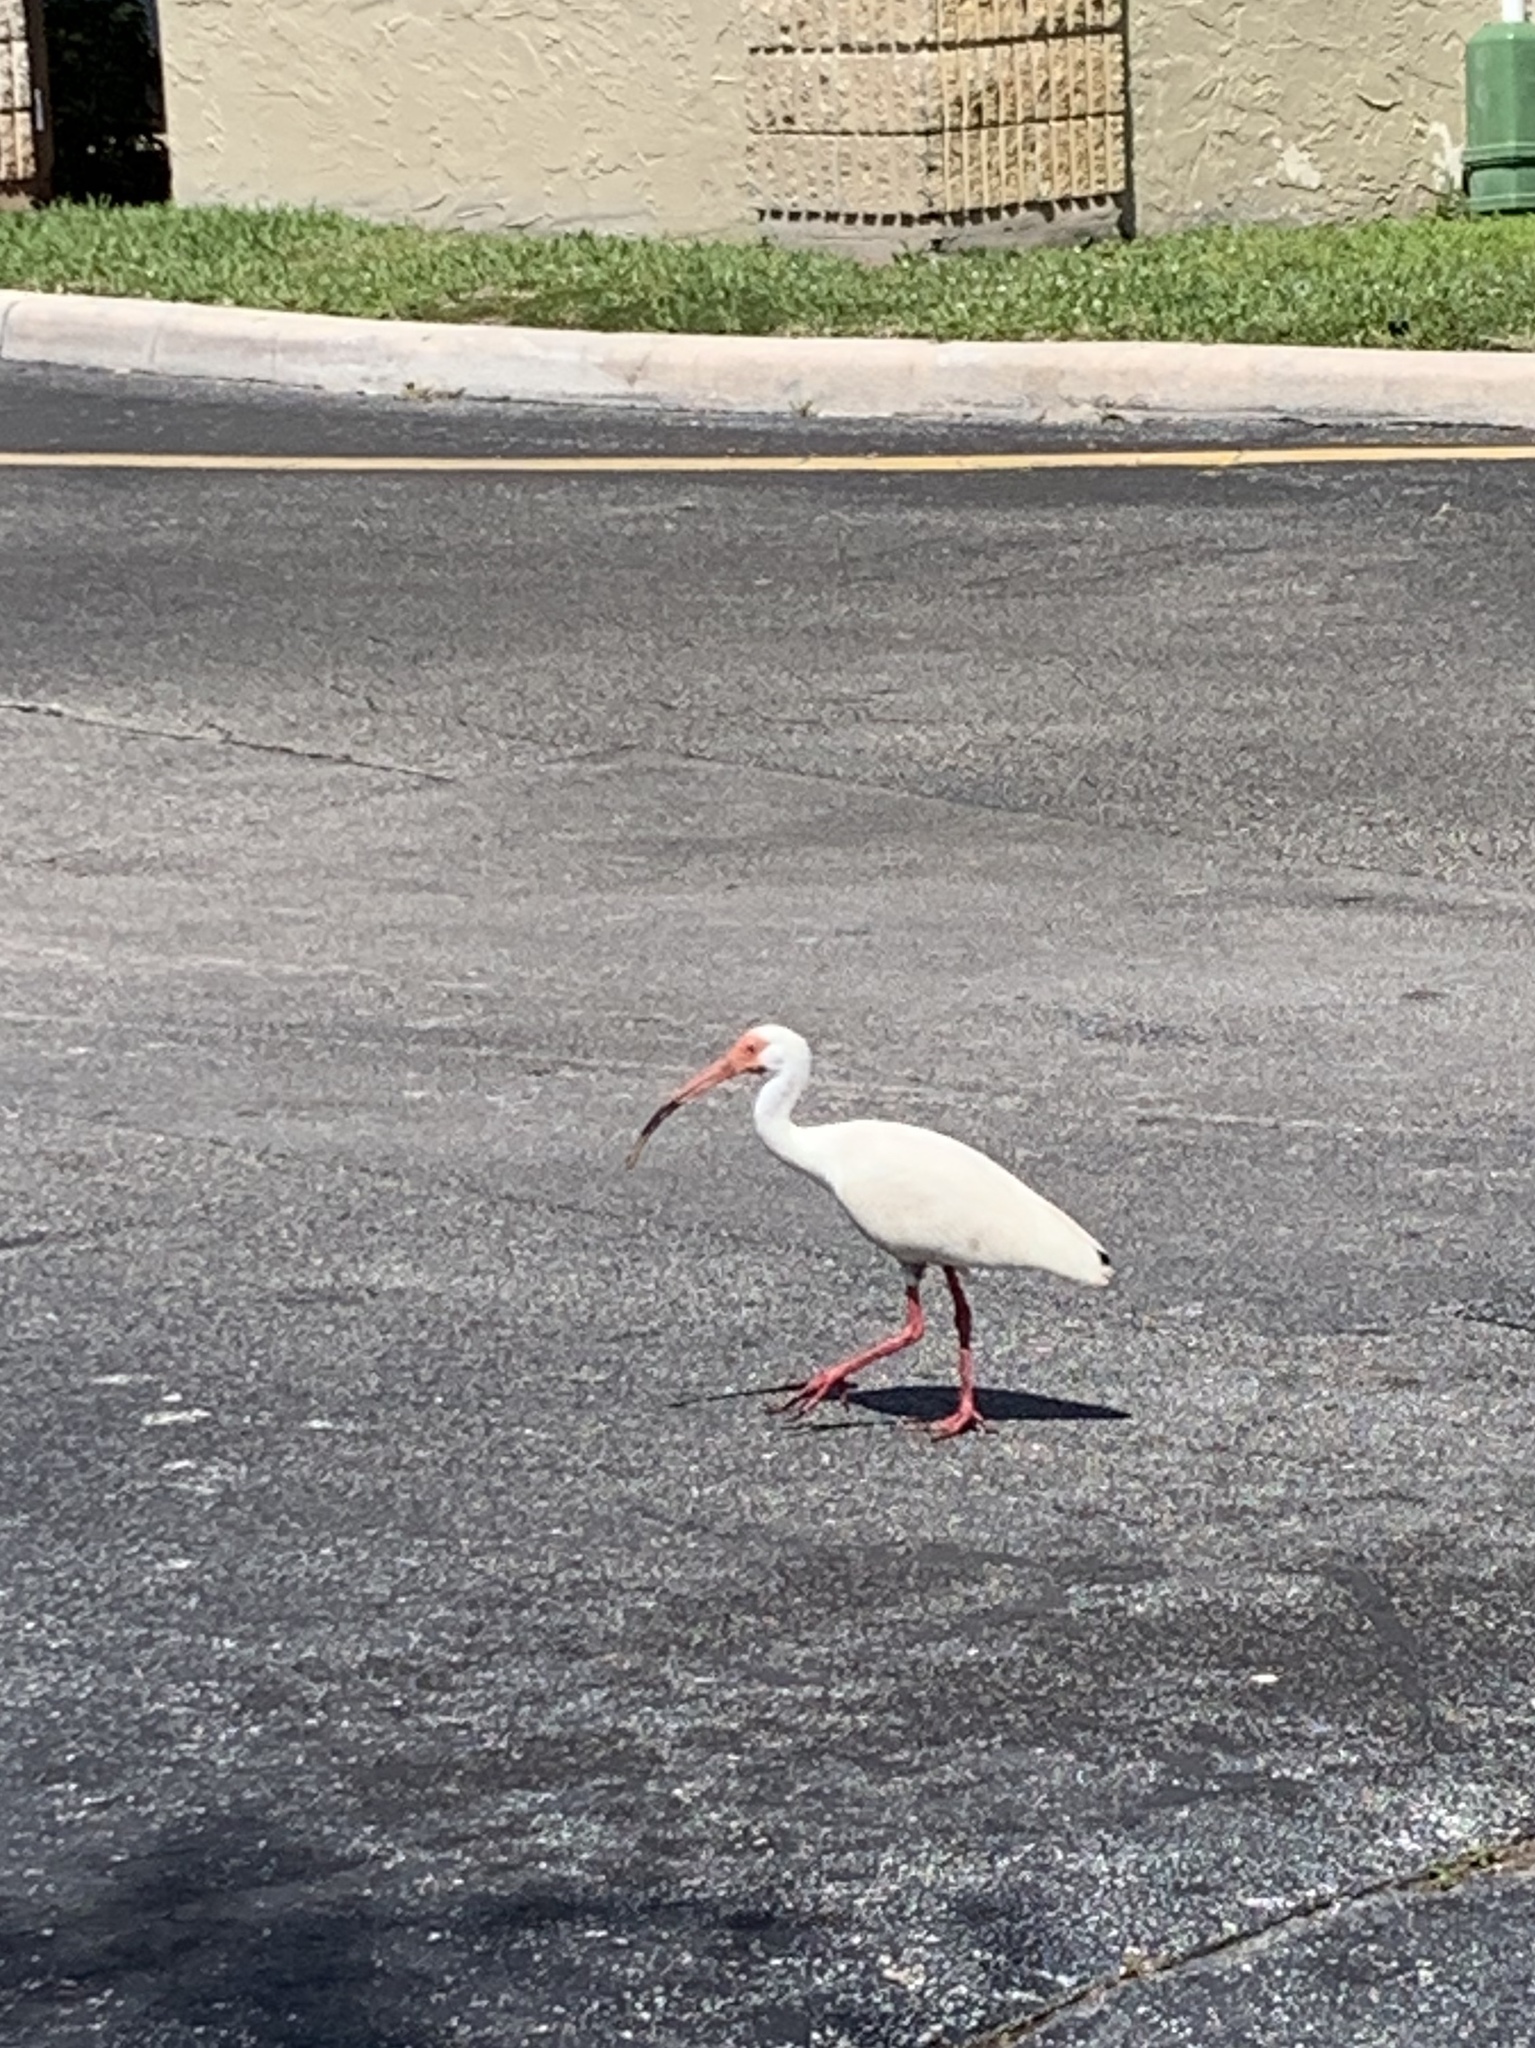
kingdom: Animalia
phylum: Chordata
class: Aves
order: Pelecaniformes
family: Threskiornithidae
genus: Eudocimus
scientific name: Eudocimus albus
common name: White ibis
